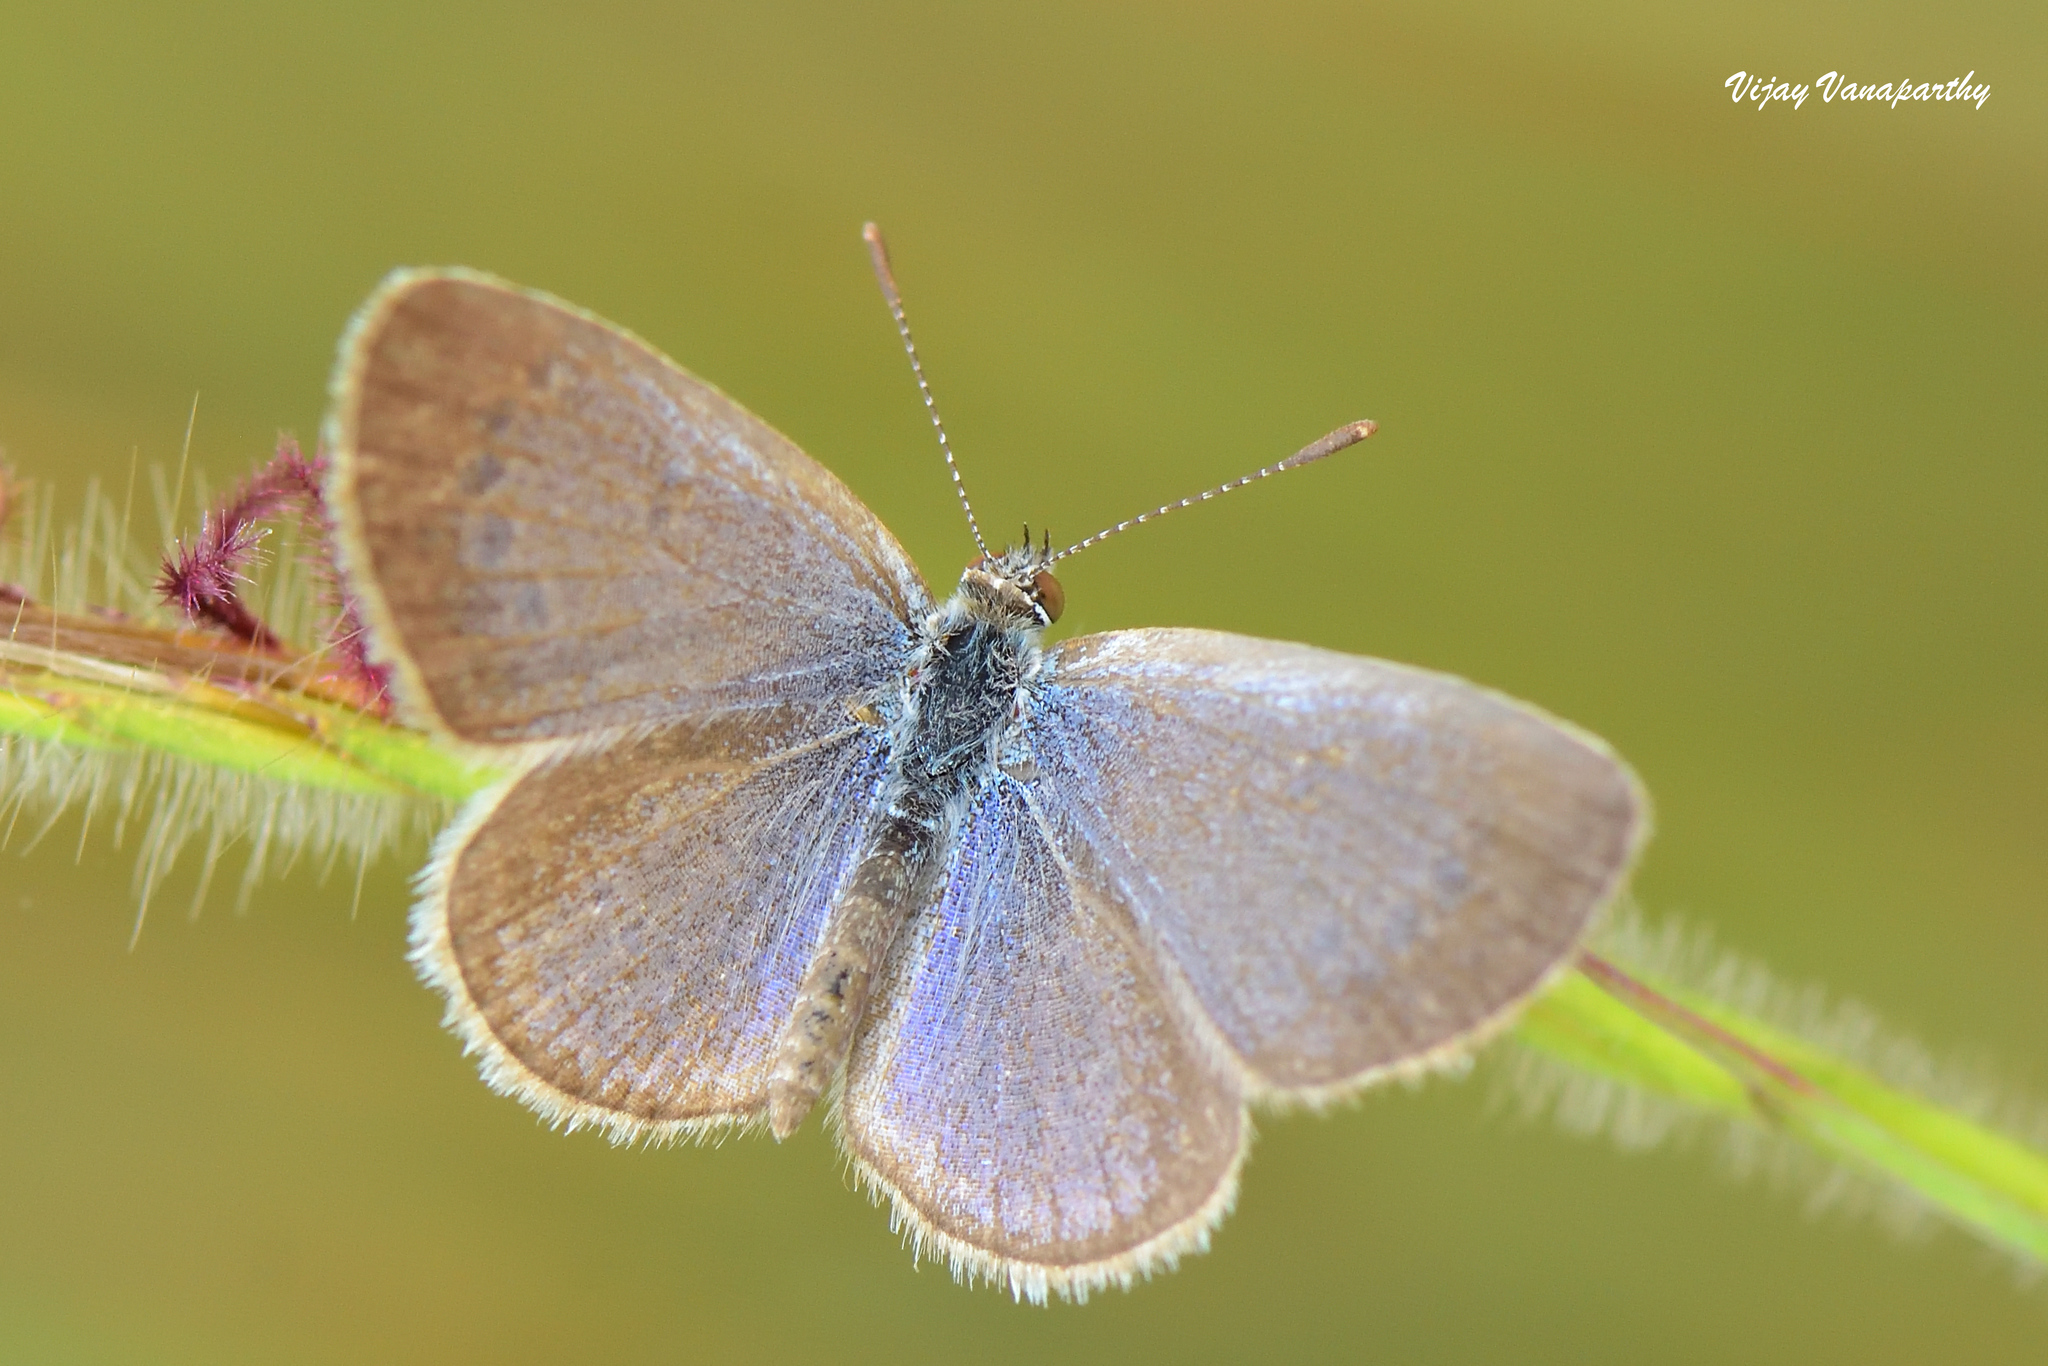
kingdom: Animalia
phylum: Arthropoda
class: Insecta
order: Lepidoptera
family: Lycaenidae
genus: Zizina
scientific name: Zizina otis
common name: Lesser grass blue
